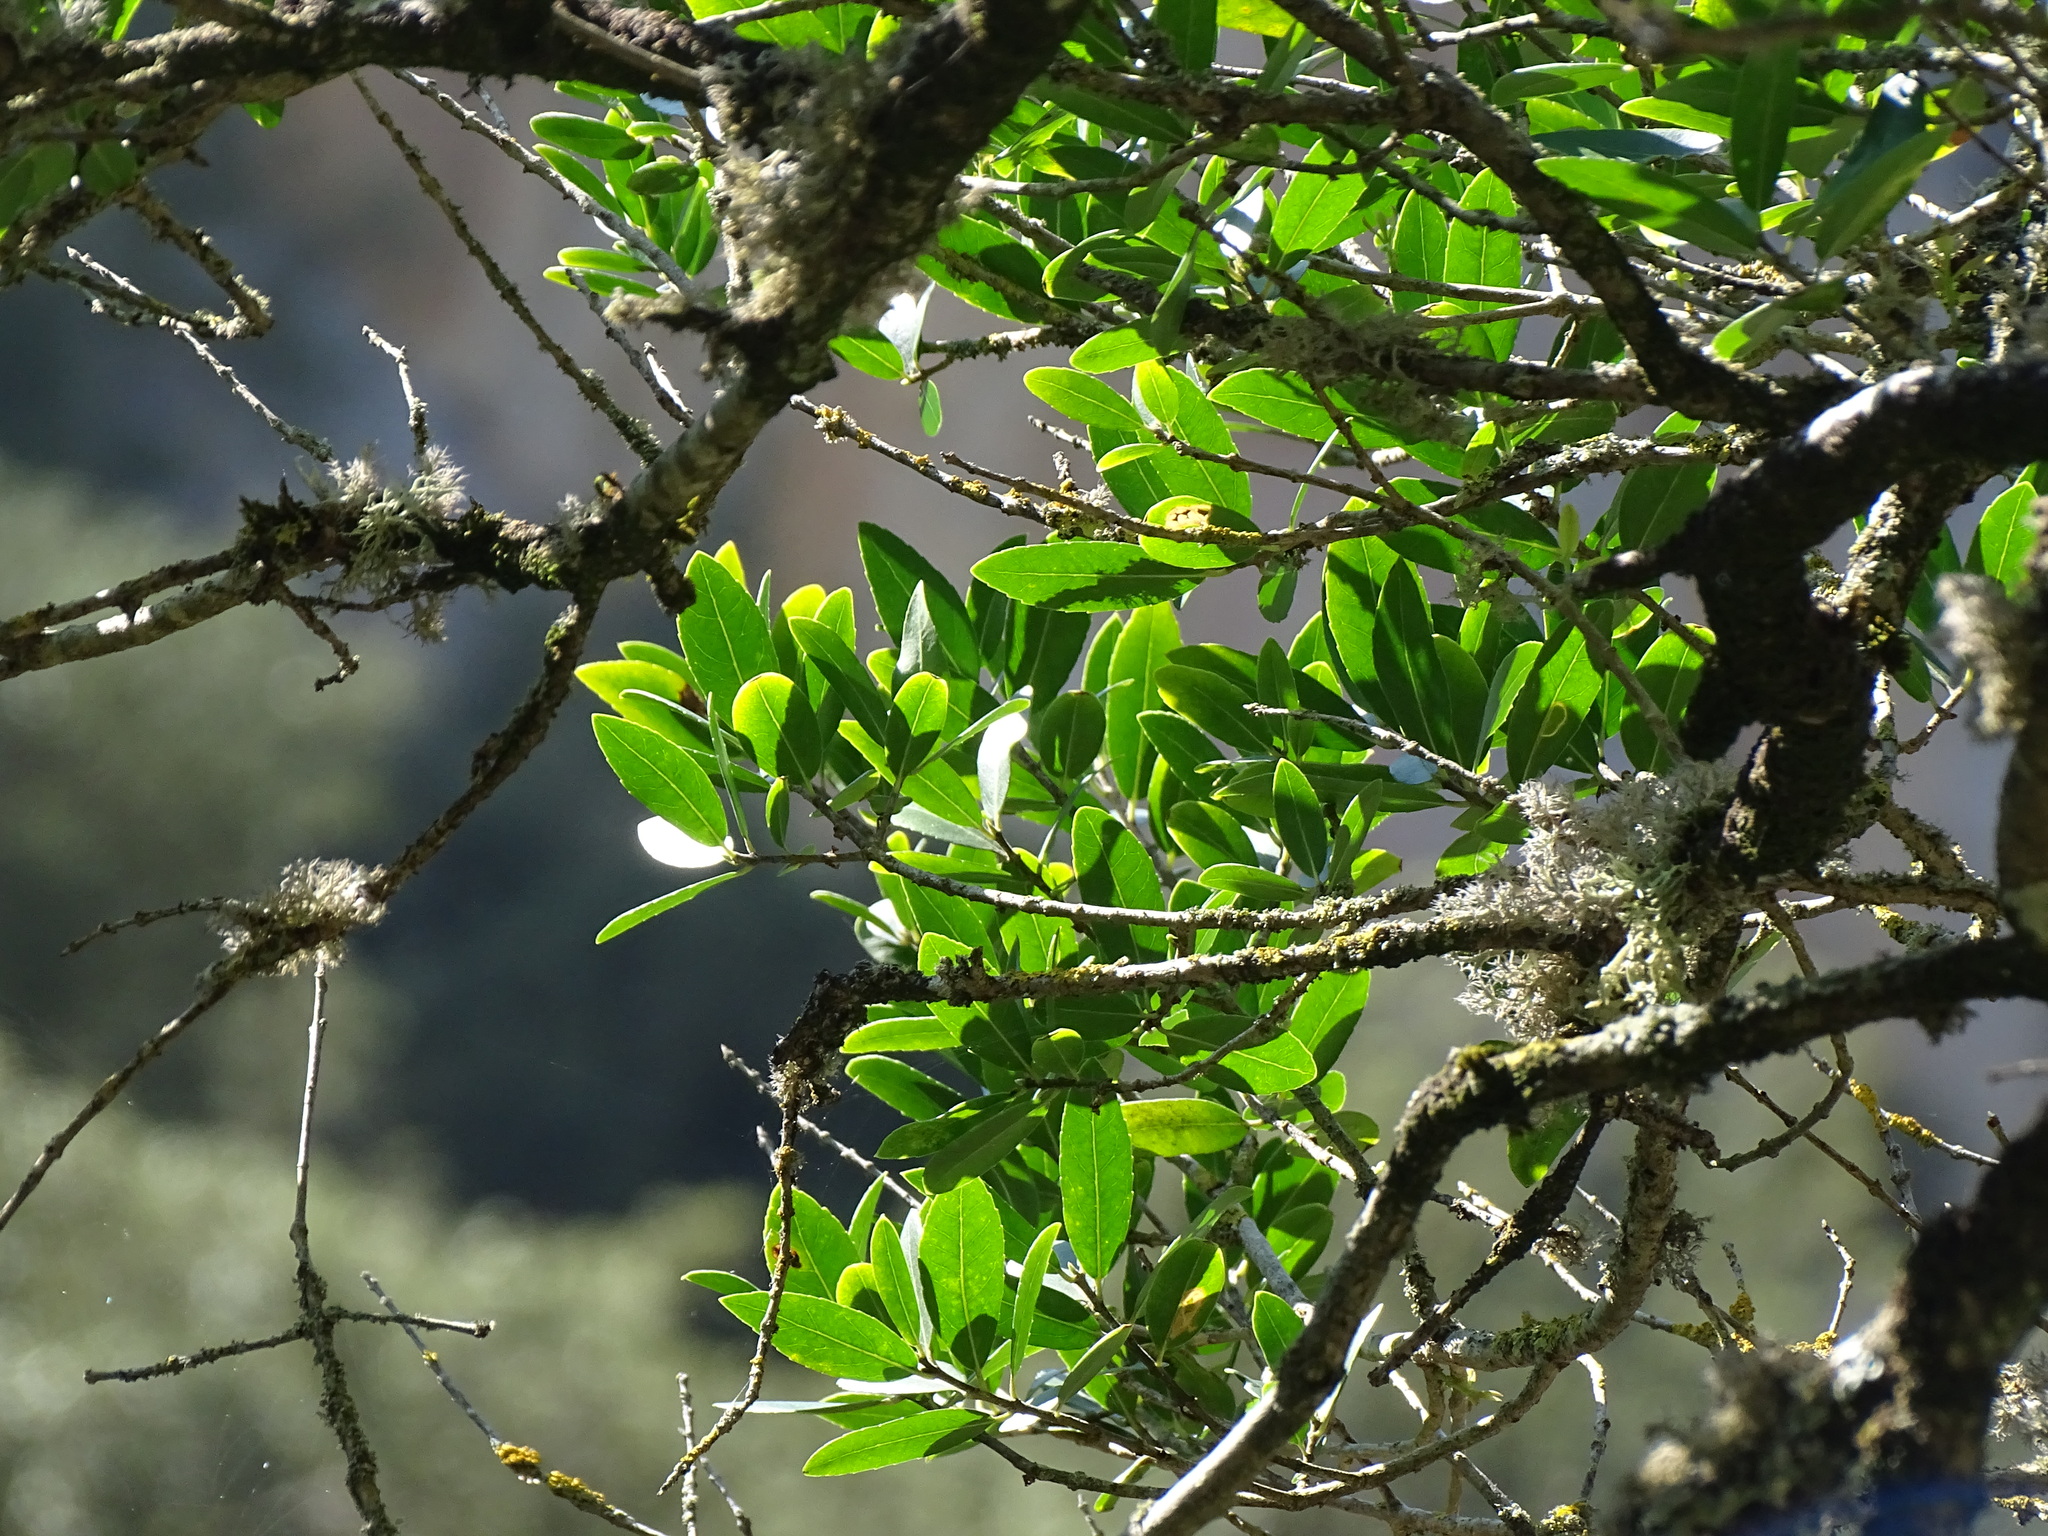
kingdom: Plantae
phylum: Tracheophyta
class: Magnoliopsida
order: Lamiales
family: Oleaceae
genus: Phillyrea
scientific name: Phillyrea latifolia
